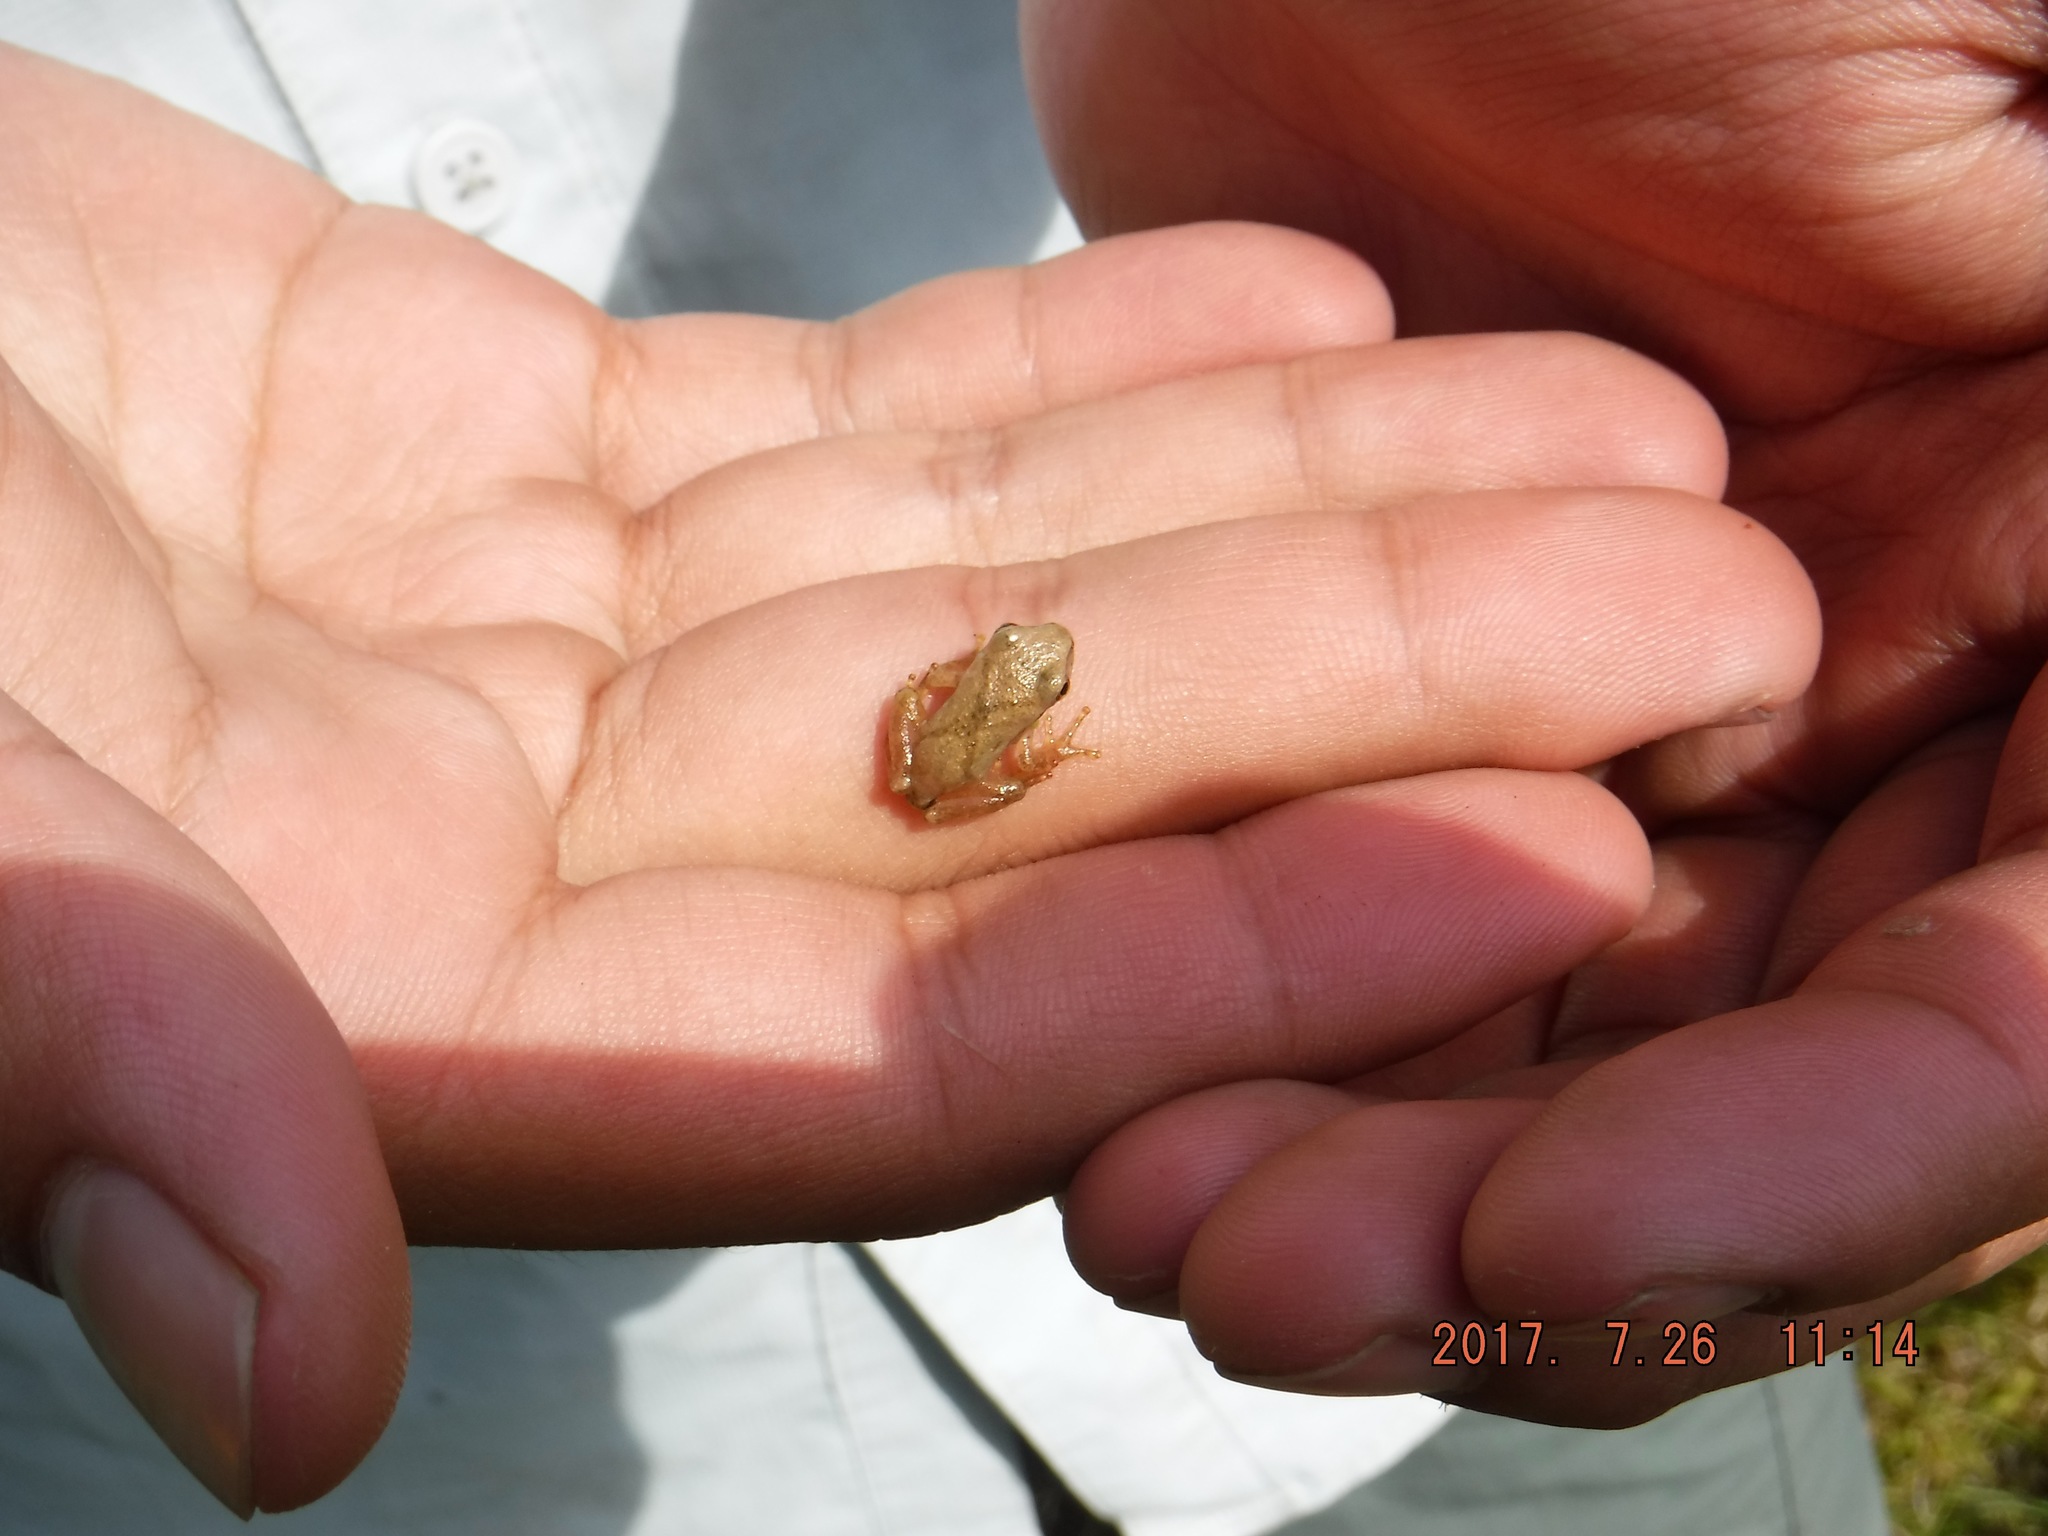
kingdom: Animalia
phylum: Chordata
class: Amphibia
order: Anura
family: Hylidae
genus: Pseudacris
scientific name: Pseudacris crucifer
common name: Spring peeper
